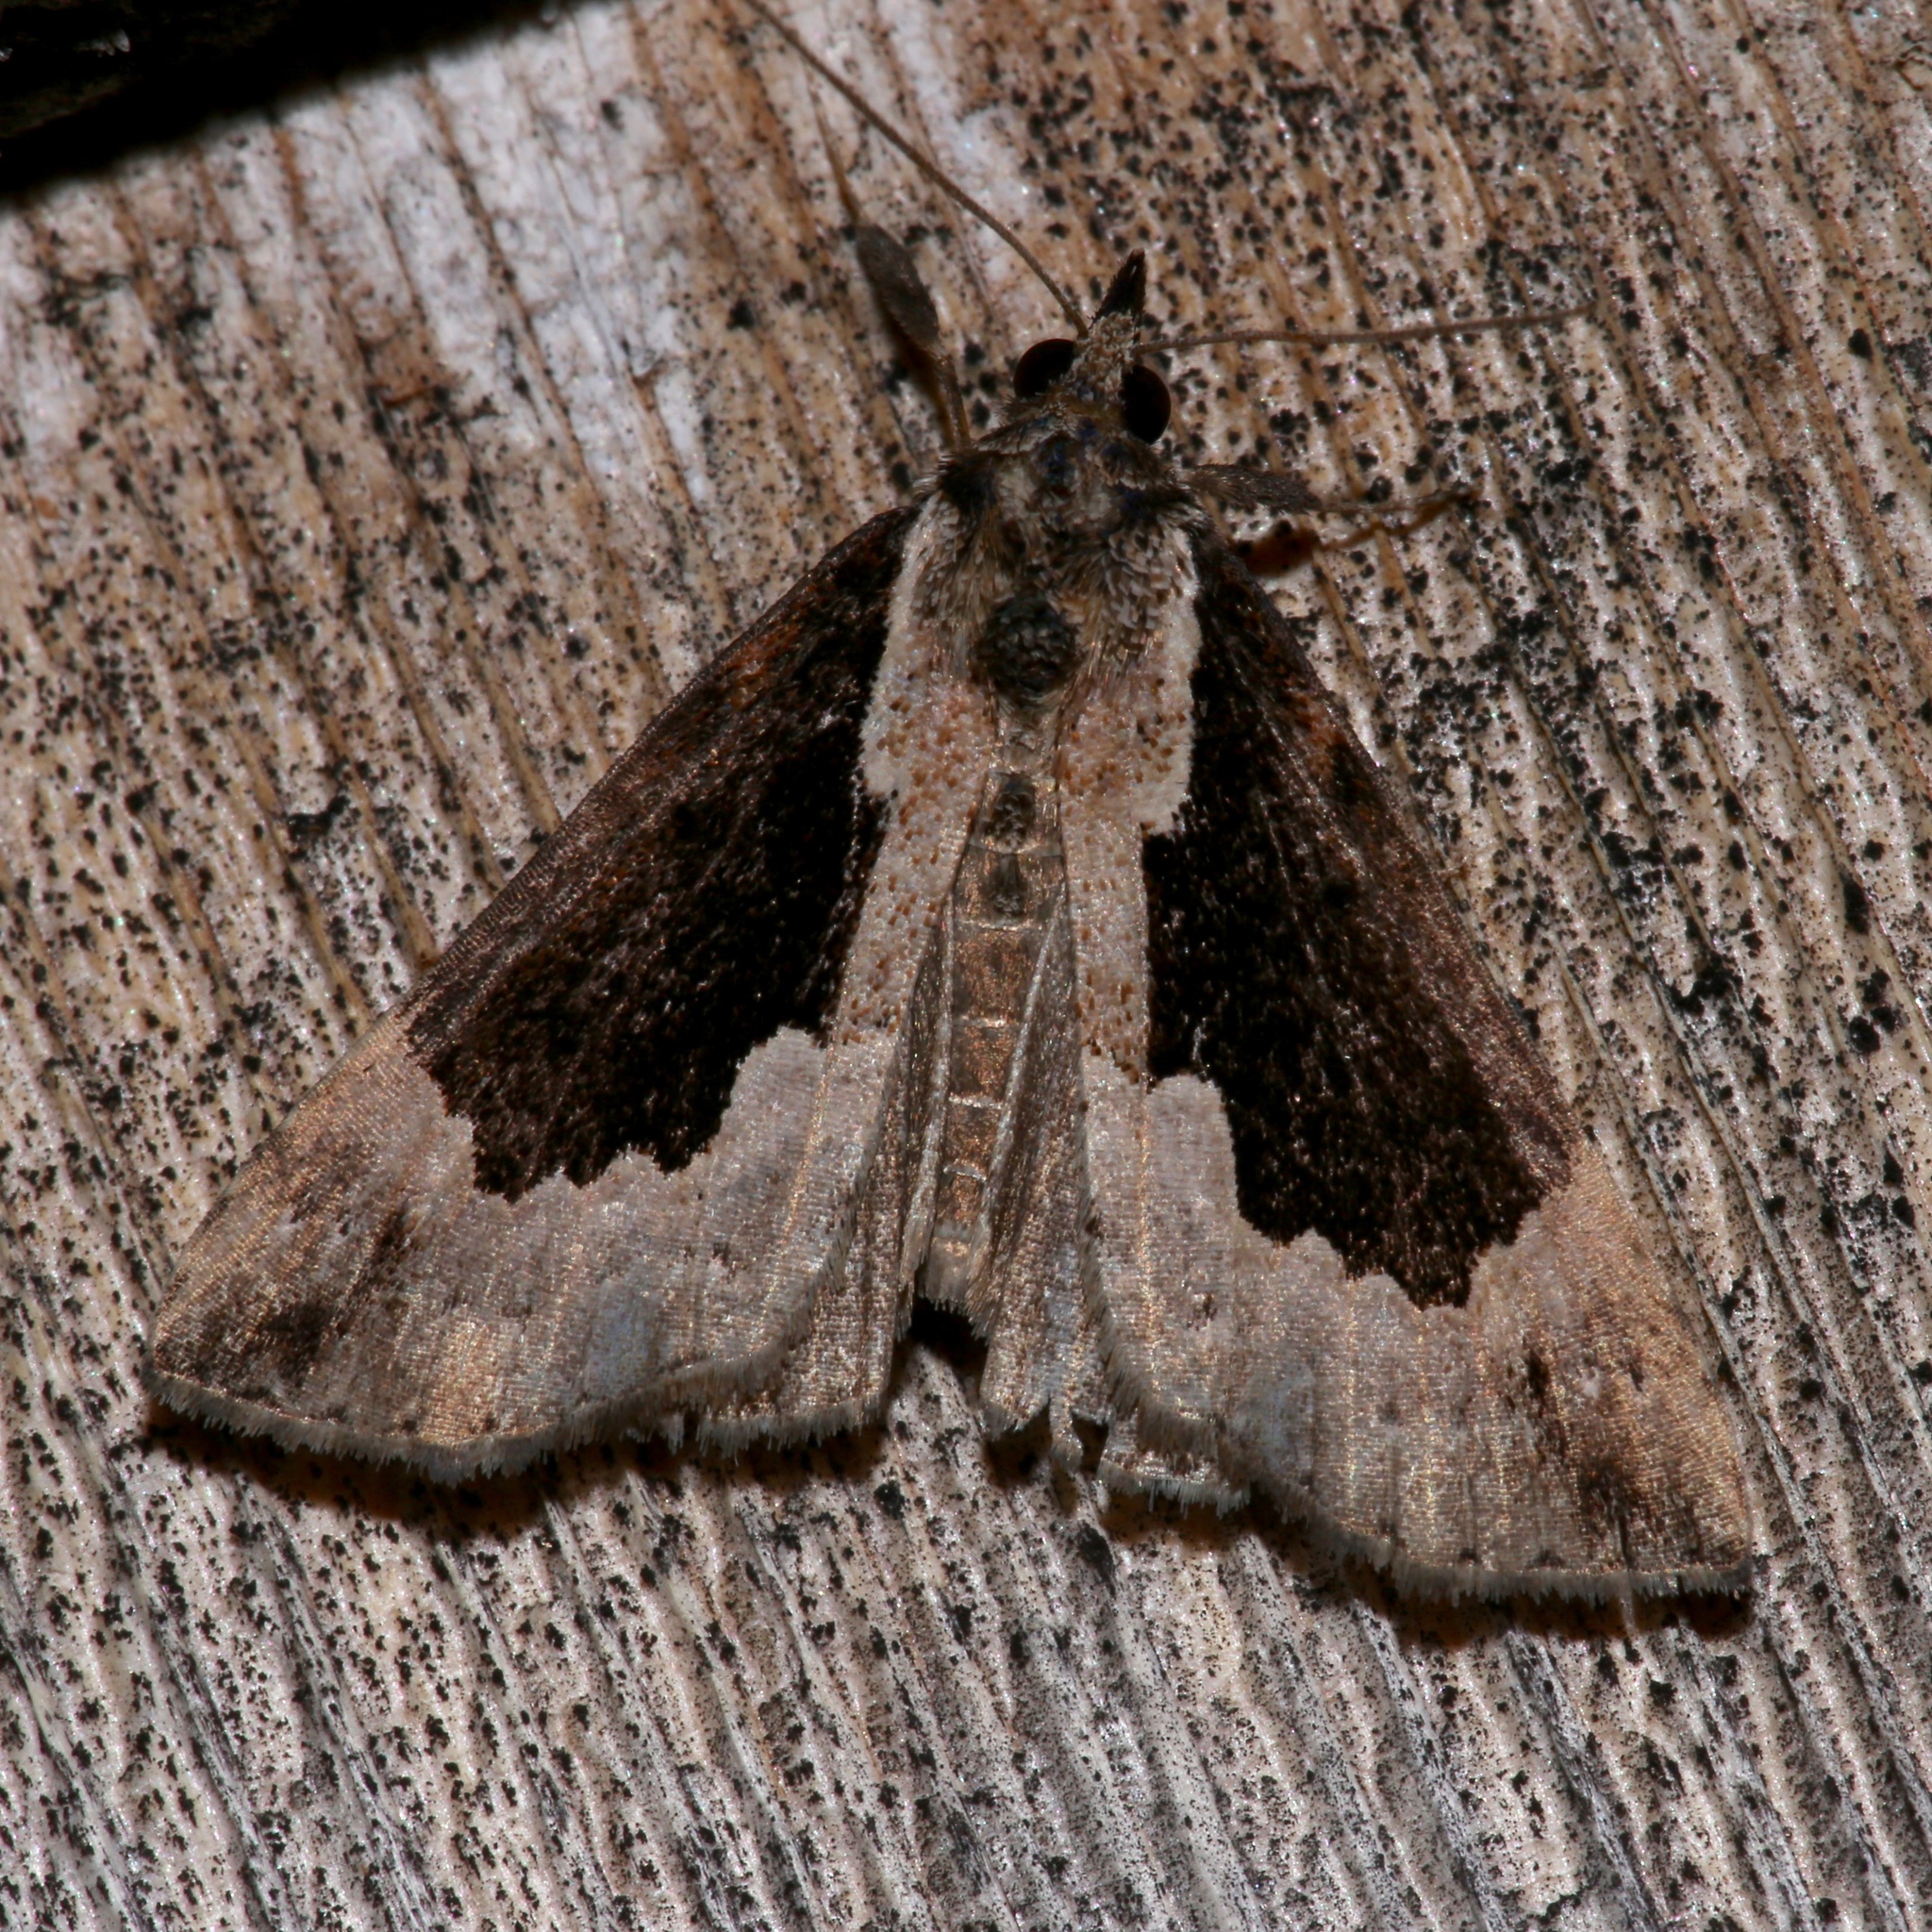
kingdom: Animalia
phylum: Arthropoda
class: Insecta
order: Lepidoptera
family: Erebidae
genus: Hypena
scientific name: Hypena baltimoralis
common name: Baltimore snout
